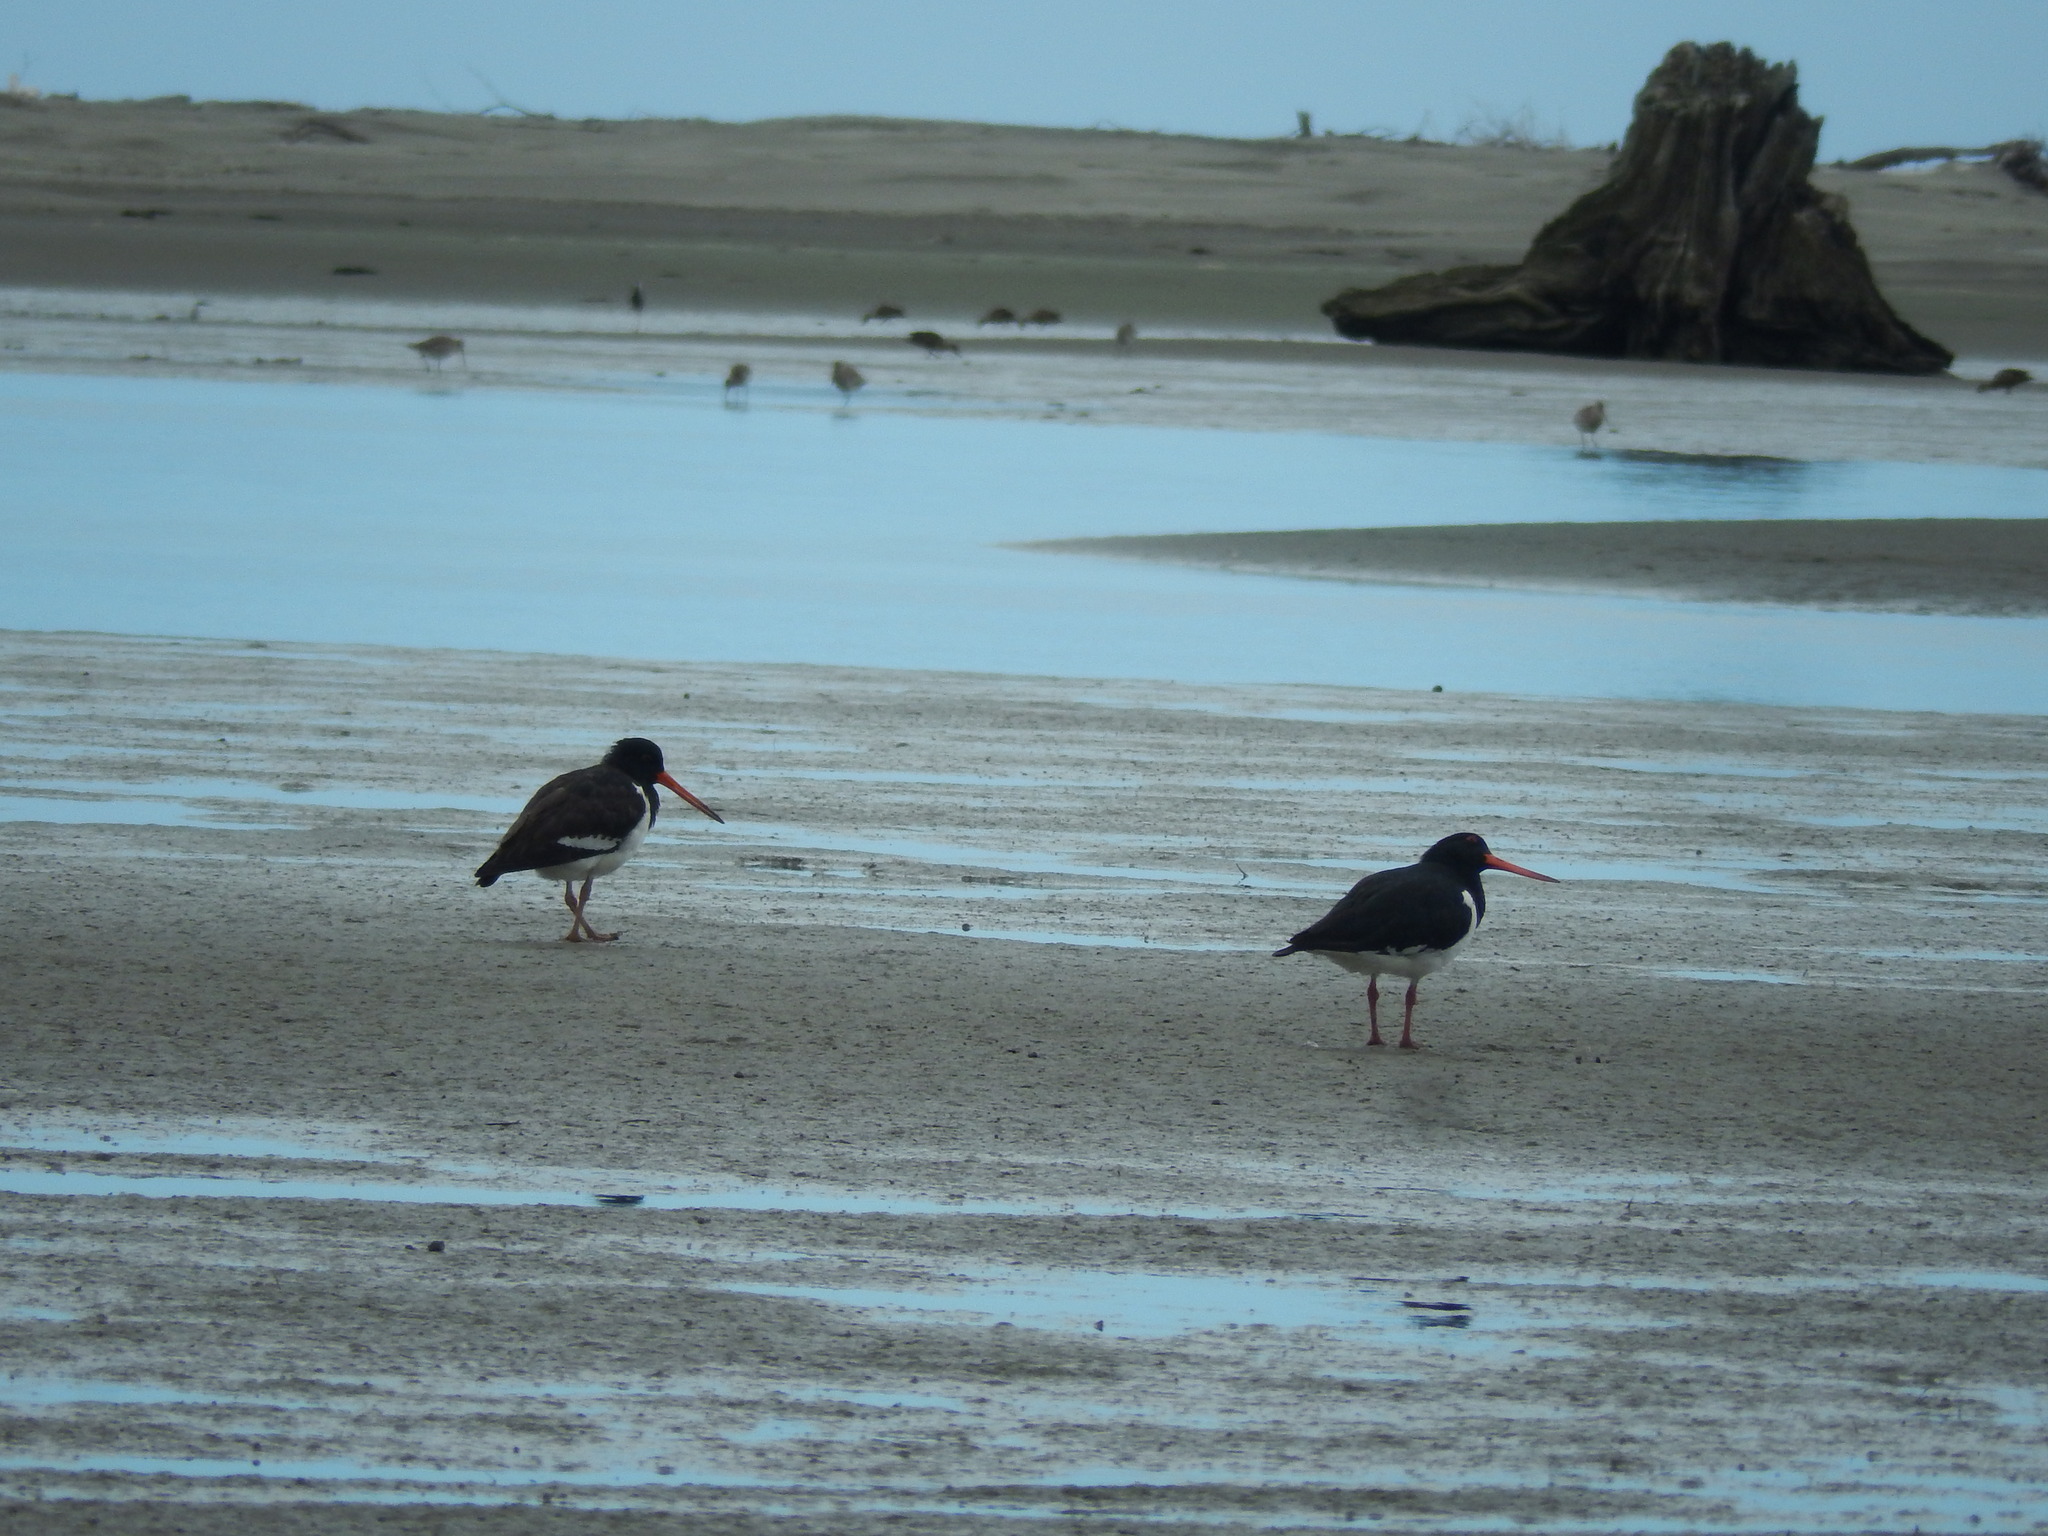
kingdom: Animalia
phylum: Chordata
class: Aves
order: Charadriiformes
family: Haematopodidae
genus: Haematopus
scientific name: Haematopus finschi
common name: South island oystercatcher
